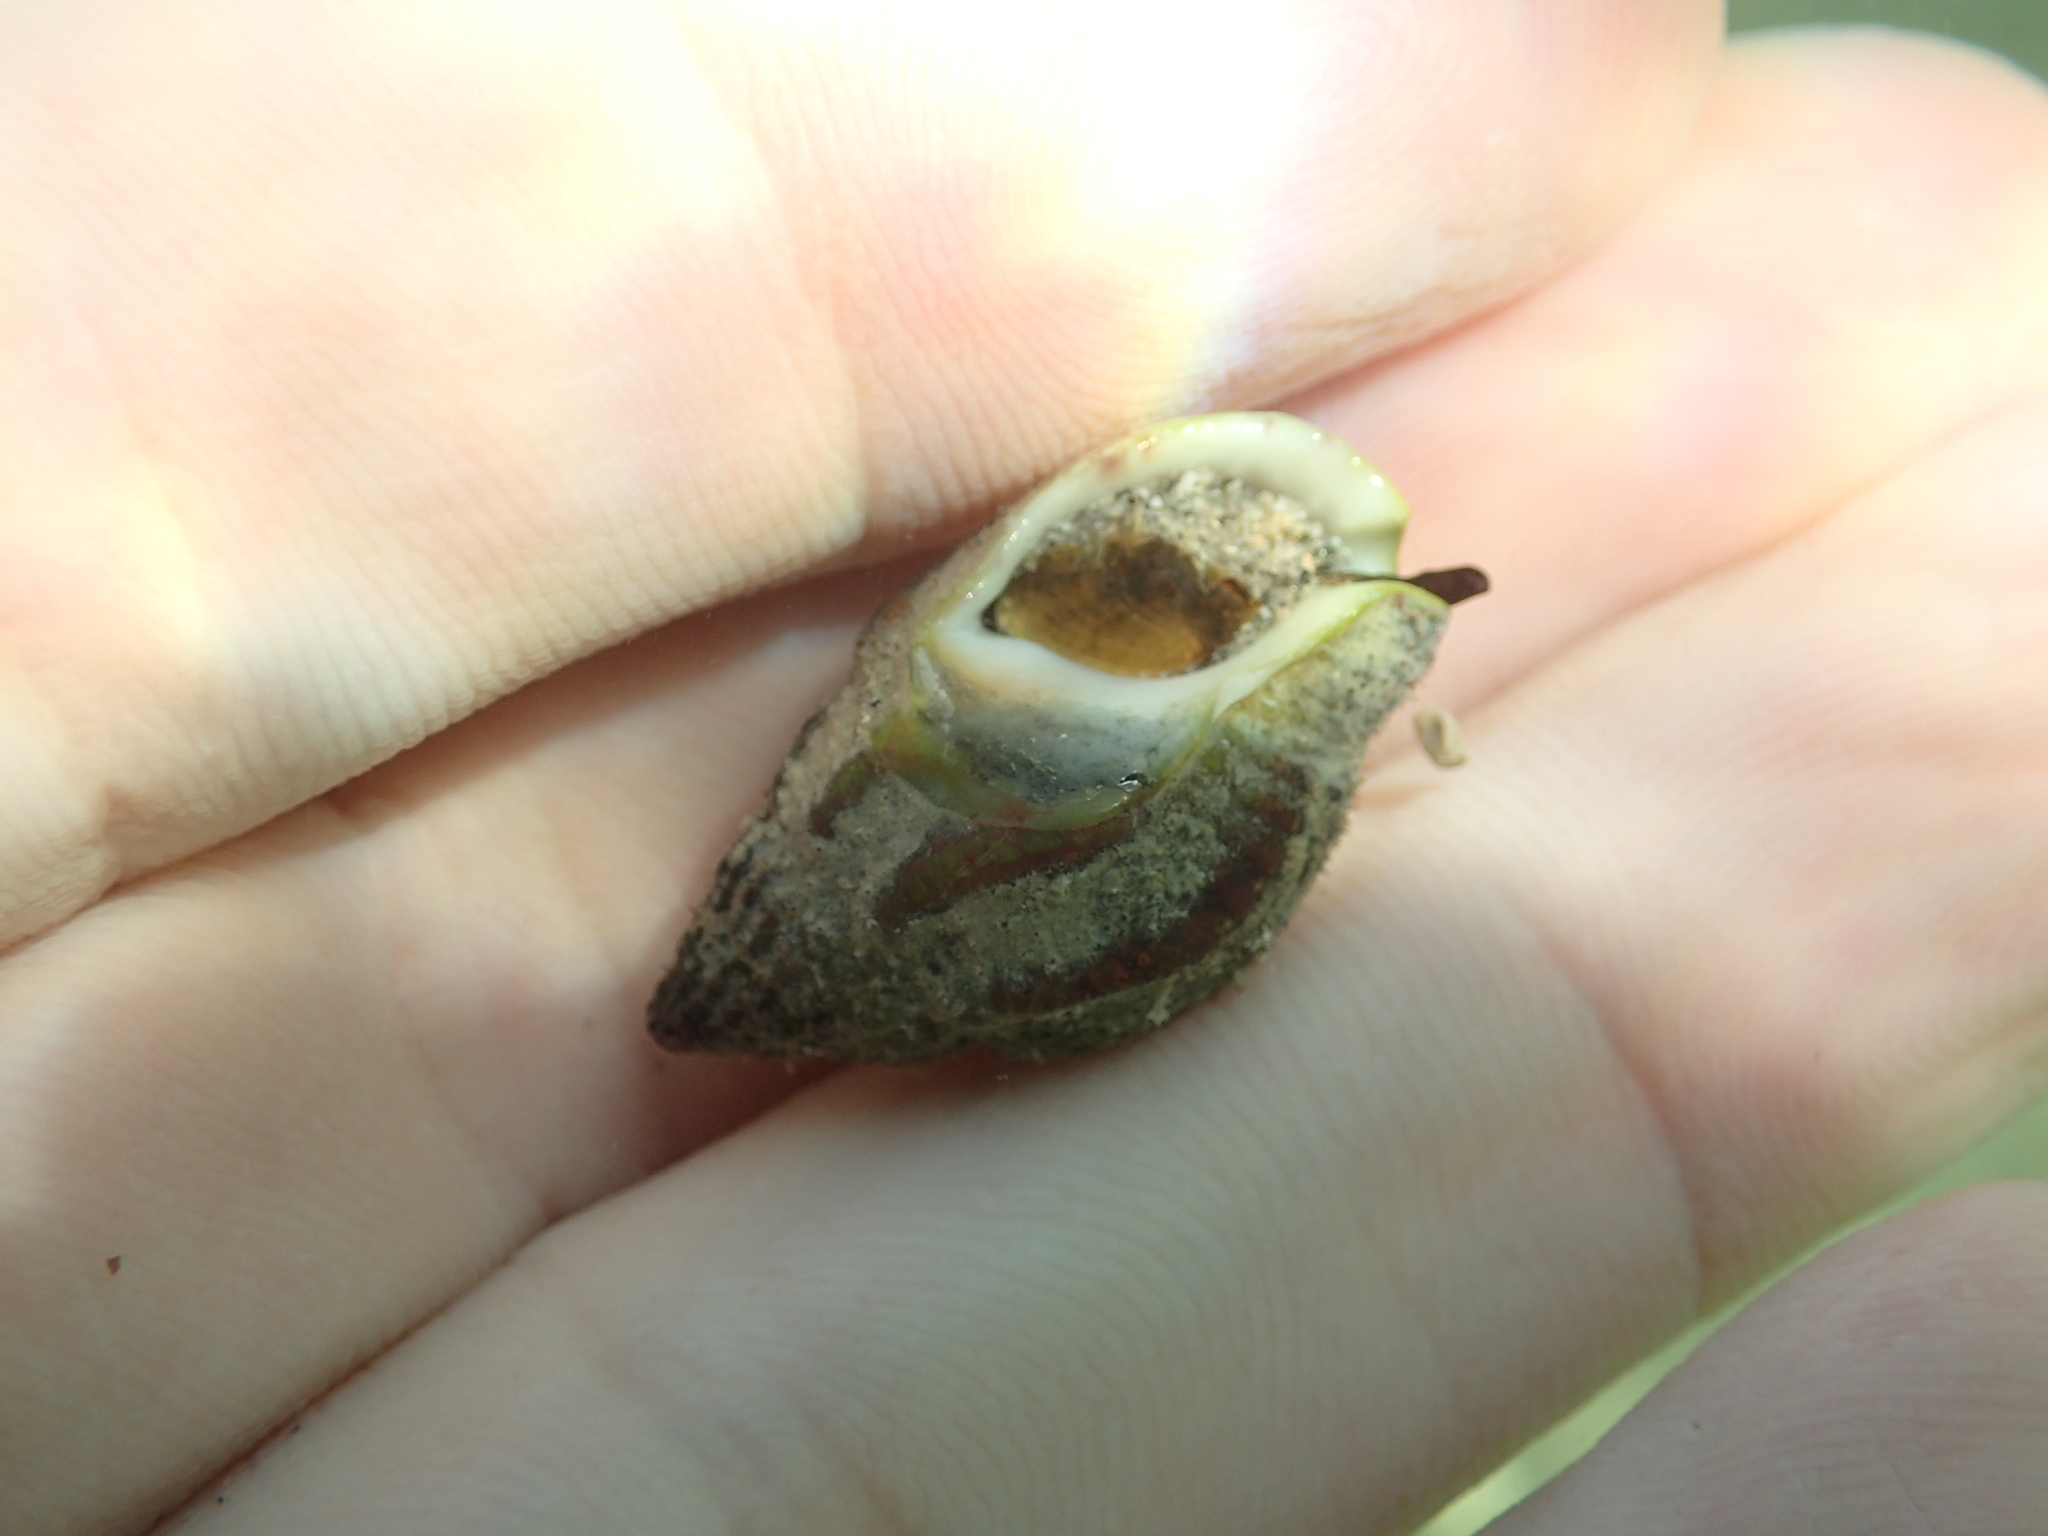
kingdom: Animalia
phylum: Mollusca
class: Gastropoda
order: Neogastropoda
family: Nassariidae
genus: Tritia
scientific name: Tritia nitida
